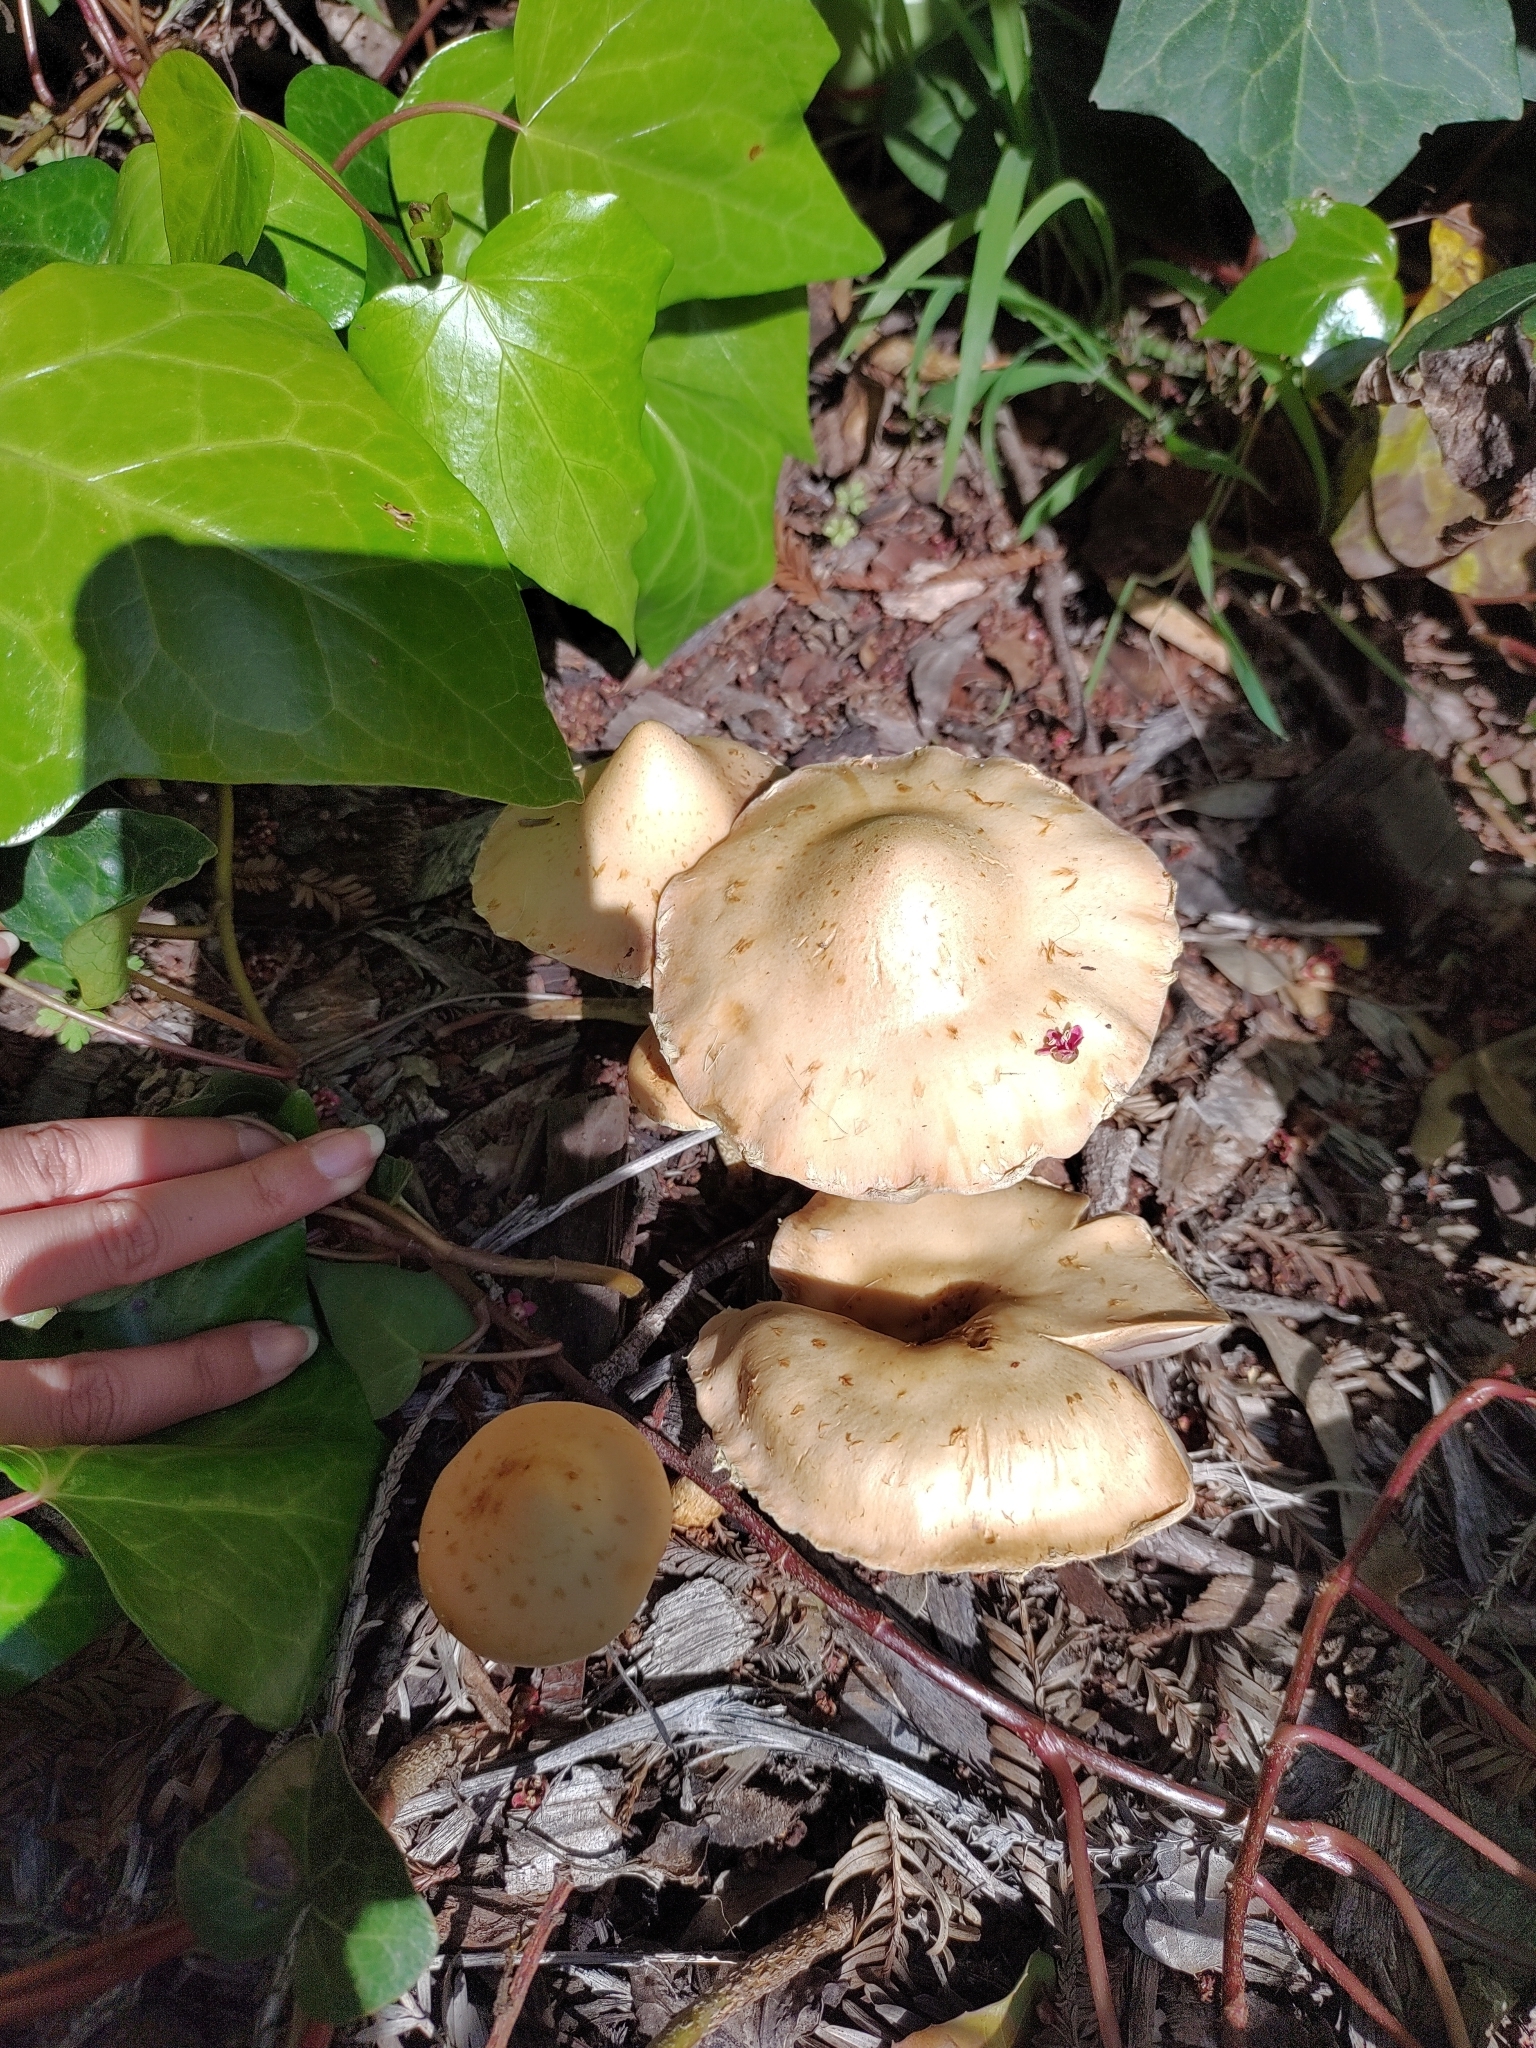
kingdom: Fungi
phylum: Basidiomycota
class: Agaricomycetes
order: Agaricales
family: Strophariaceae
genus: Leratiomyces
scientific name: Leratiomyces percevalii
